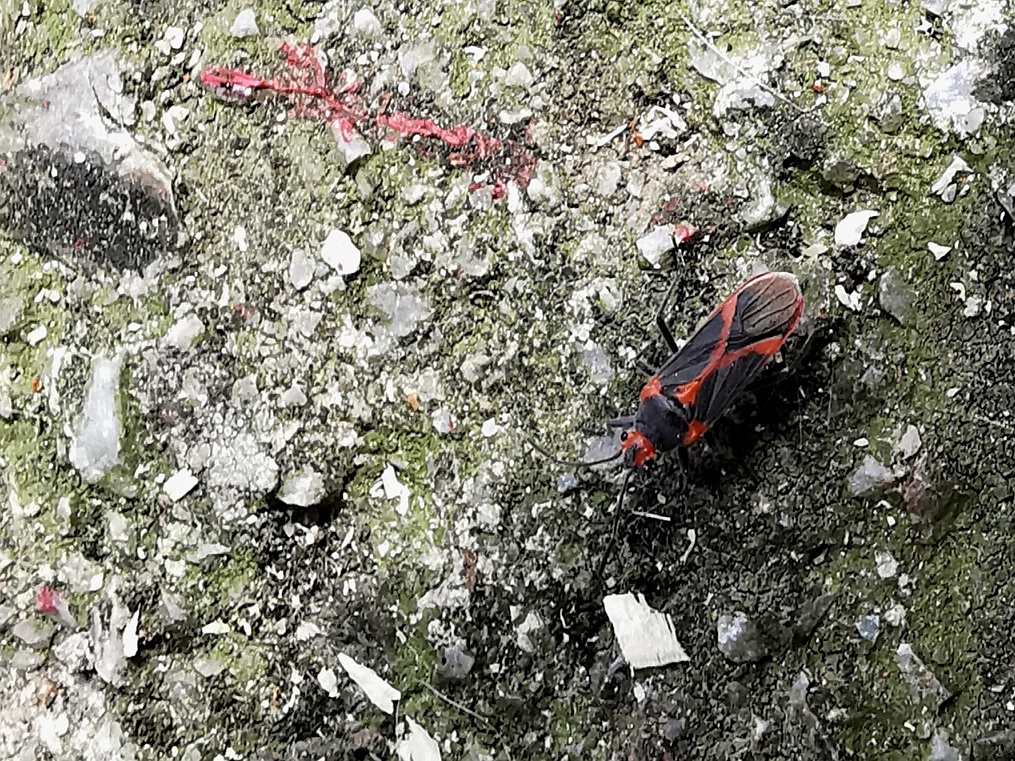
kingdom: Animalia
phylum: Arthropoda
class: Insecta
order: Hemiptera
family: Lygaeidae
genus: Caenocoris
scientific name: Caenocoris nerii
